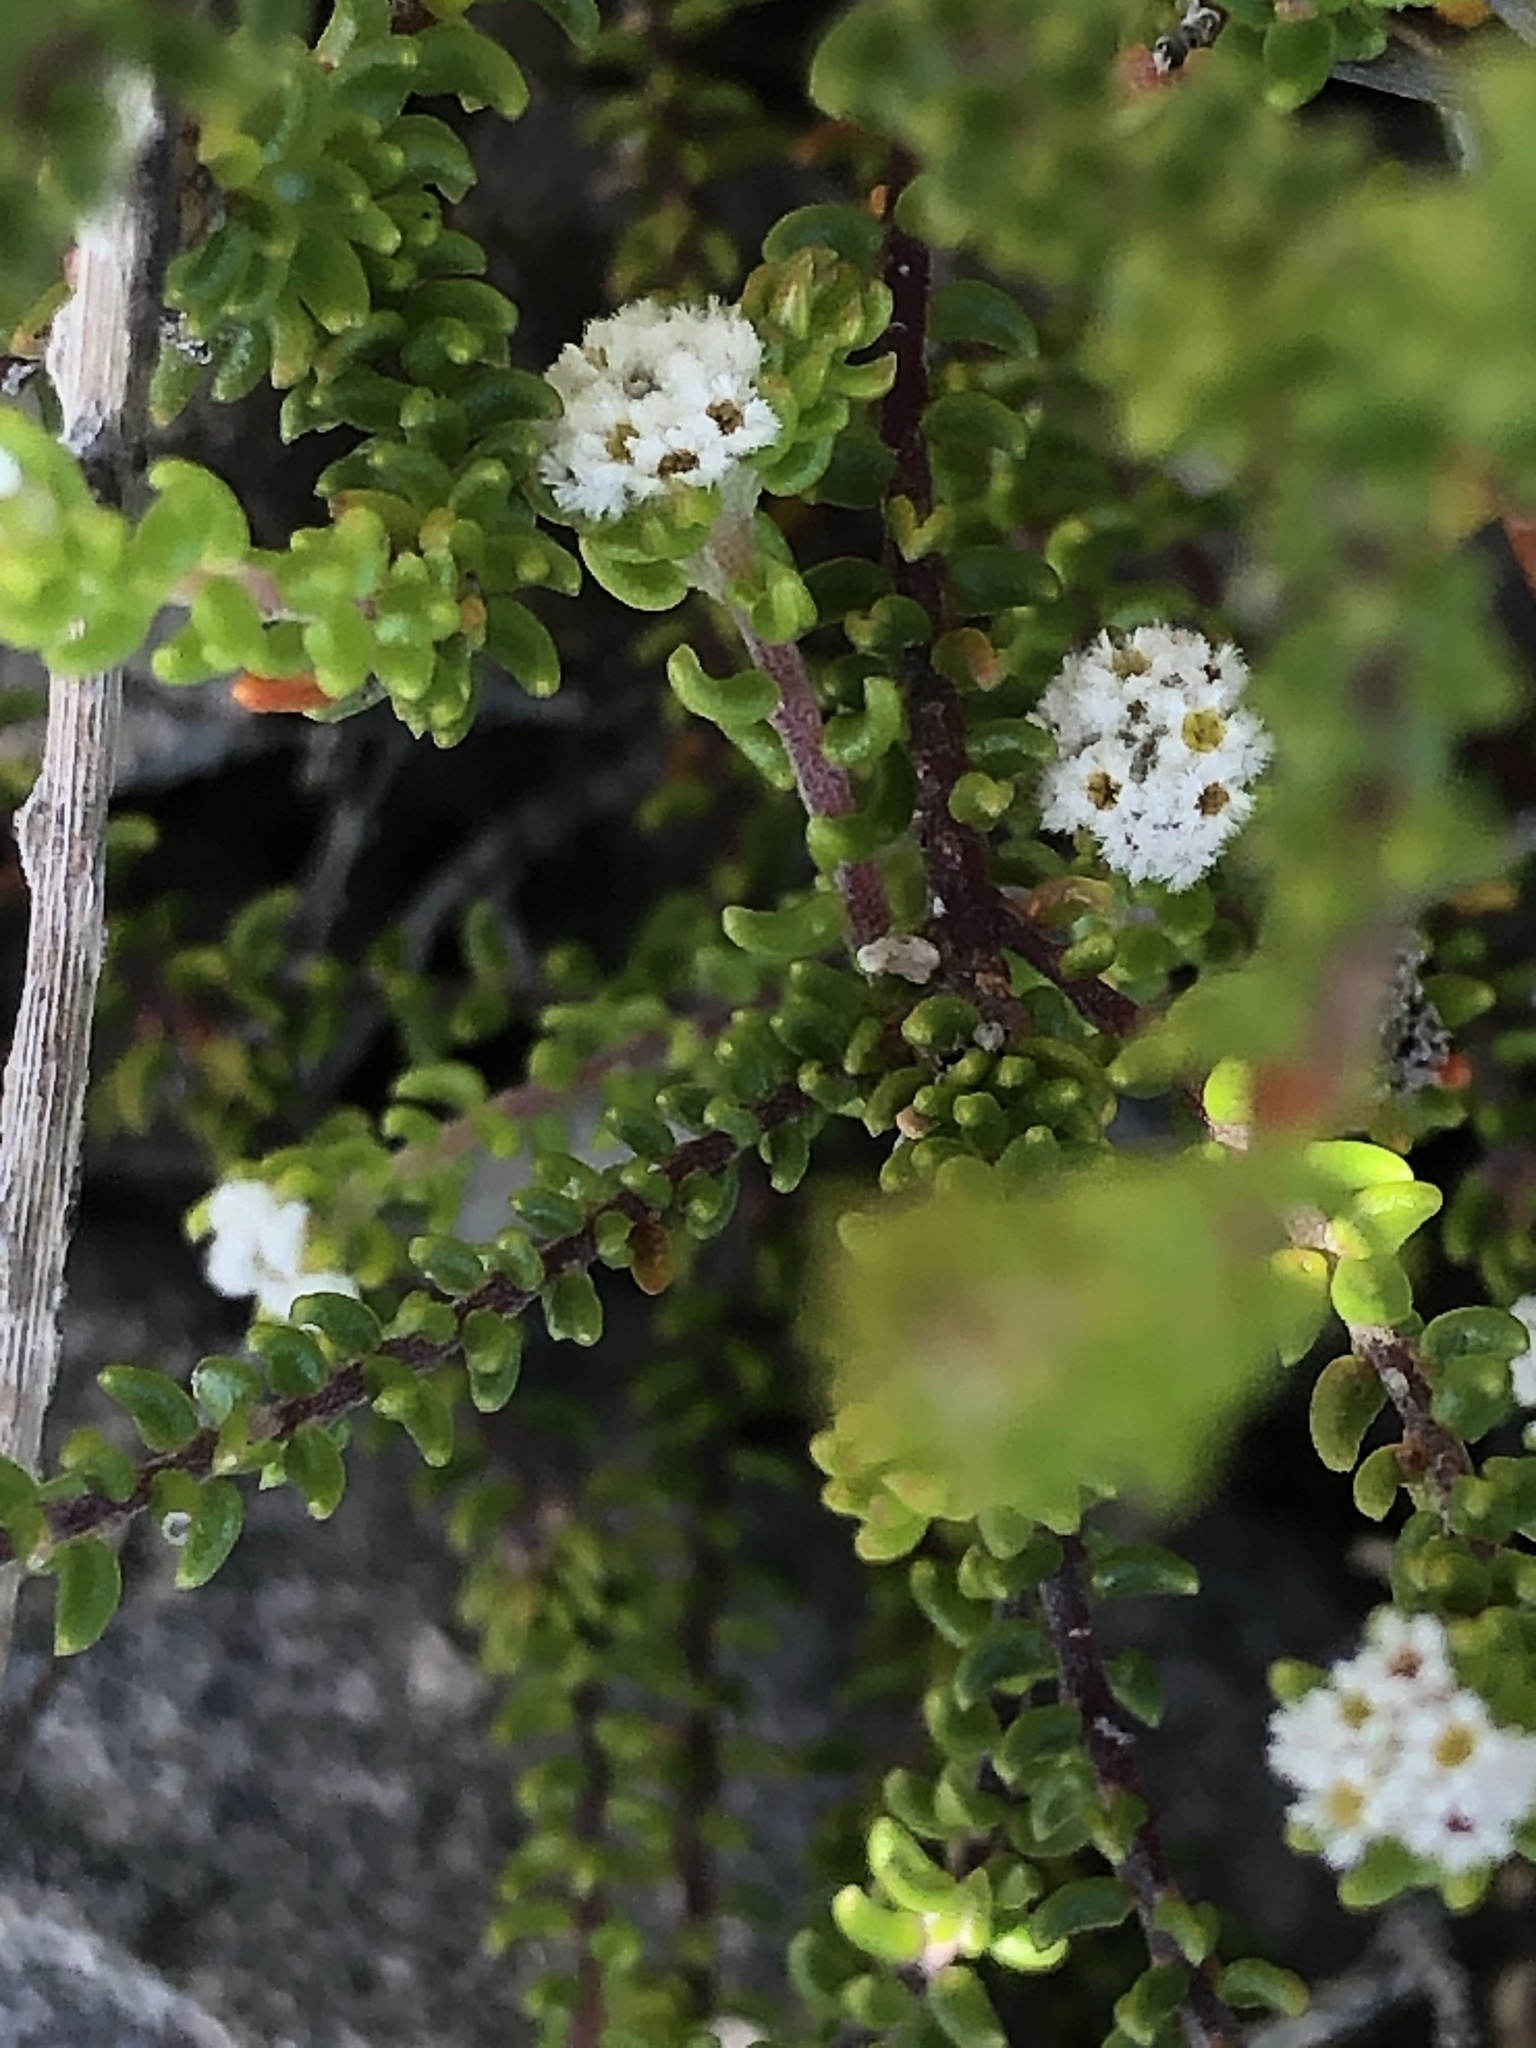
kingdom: Plantae
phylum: Tracheophyta
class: Magnoliopsida
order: Rosales
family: Rhamnaceae
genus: Phylica
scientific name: Phylica ericoides
